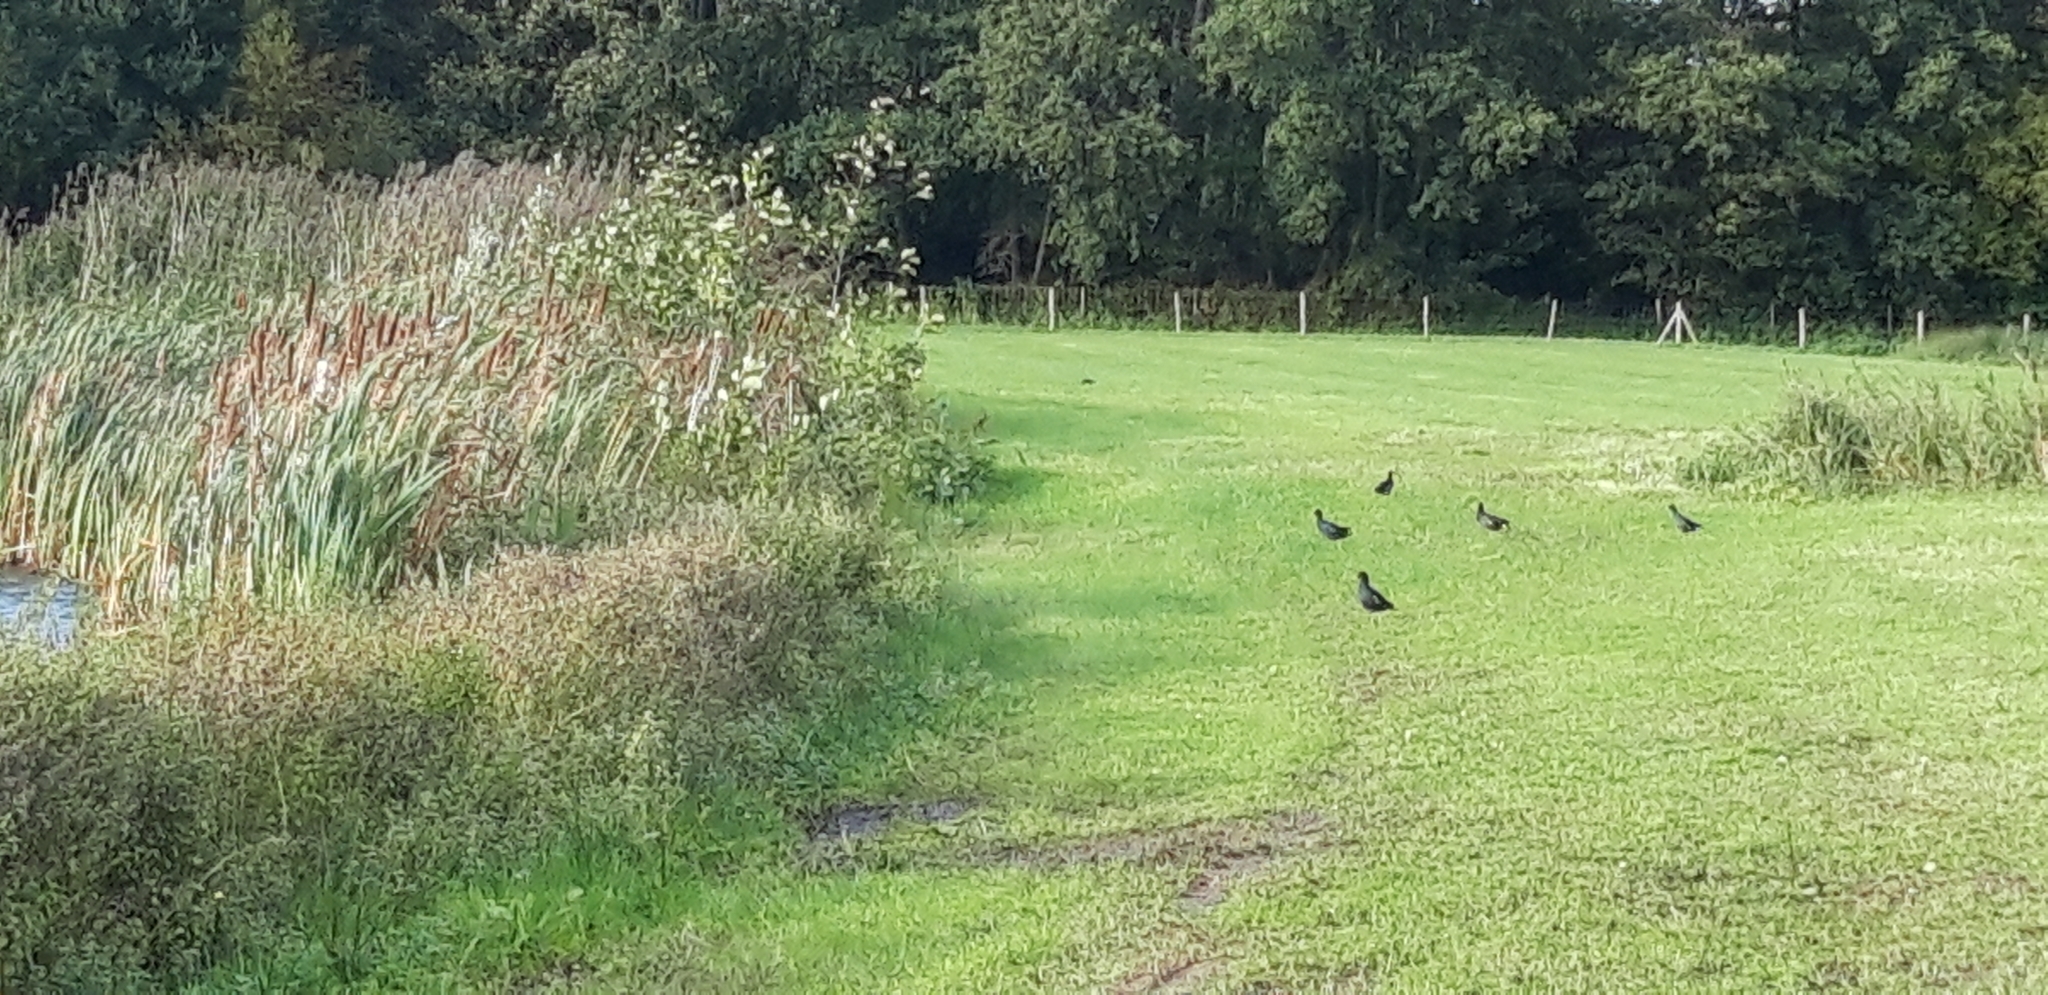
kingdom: Animalia
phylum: Chordata
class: Aves
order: Gruiformes
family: Rallidae
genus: Gallinula
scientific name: Gallinula chloropus
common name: Common moorhen
